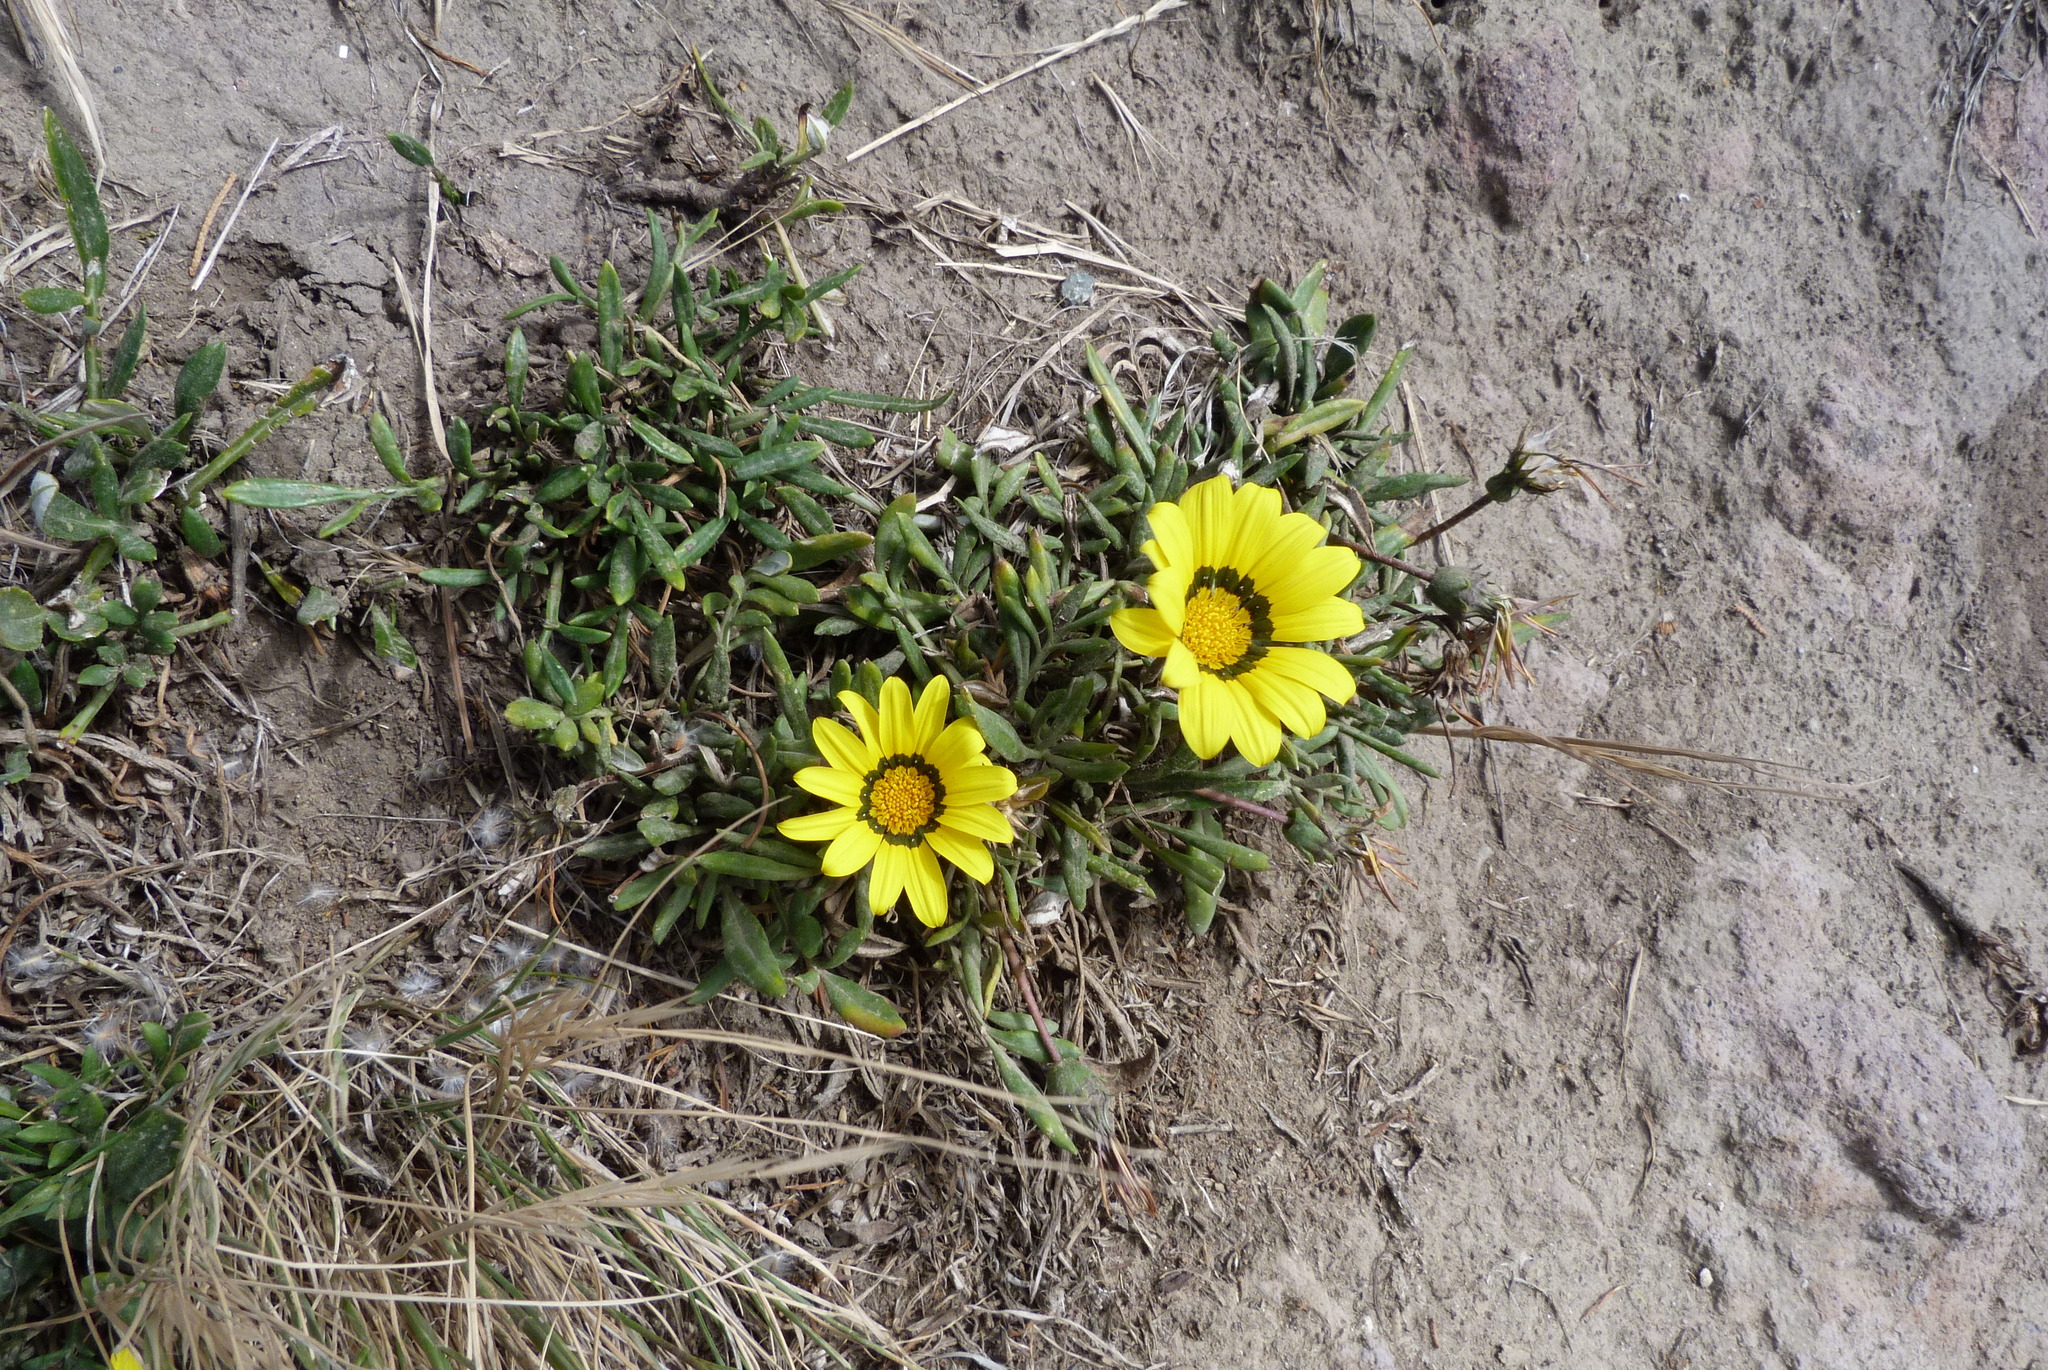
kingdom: Plantae
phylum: Tracheophyta
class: Magnoliopsida
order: Asterales
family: Asteraceae
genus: Gazania
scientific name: Gazania rigens
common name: Treasureflower
